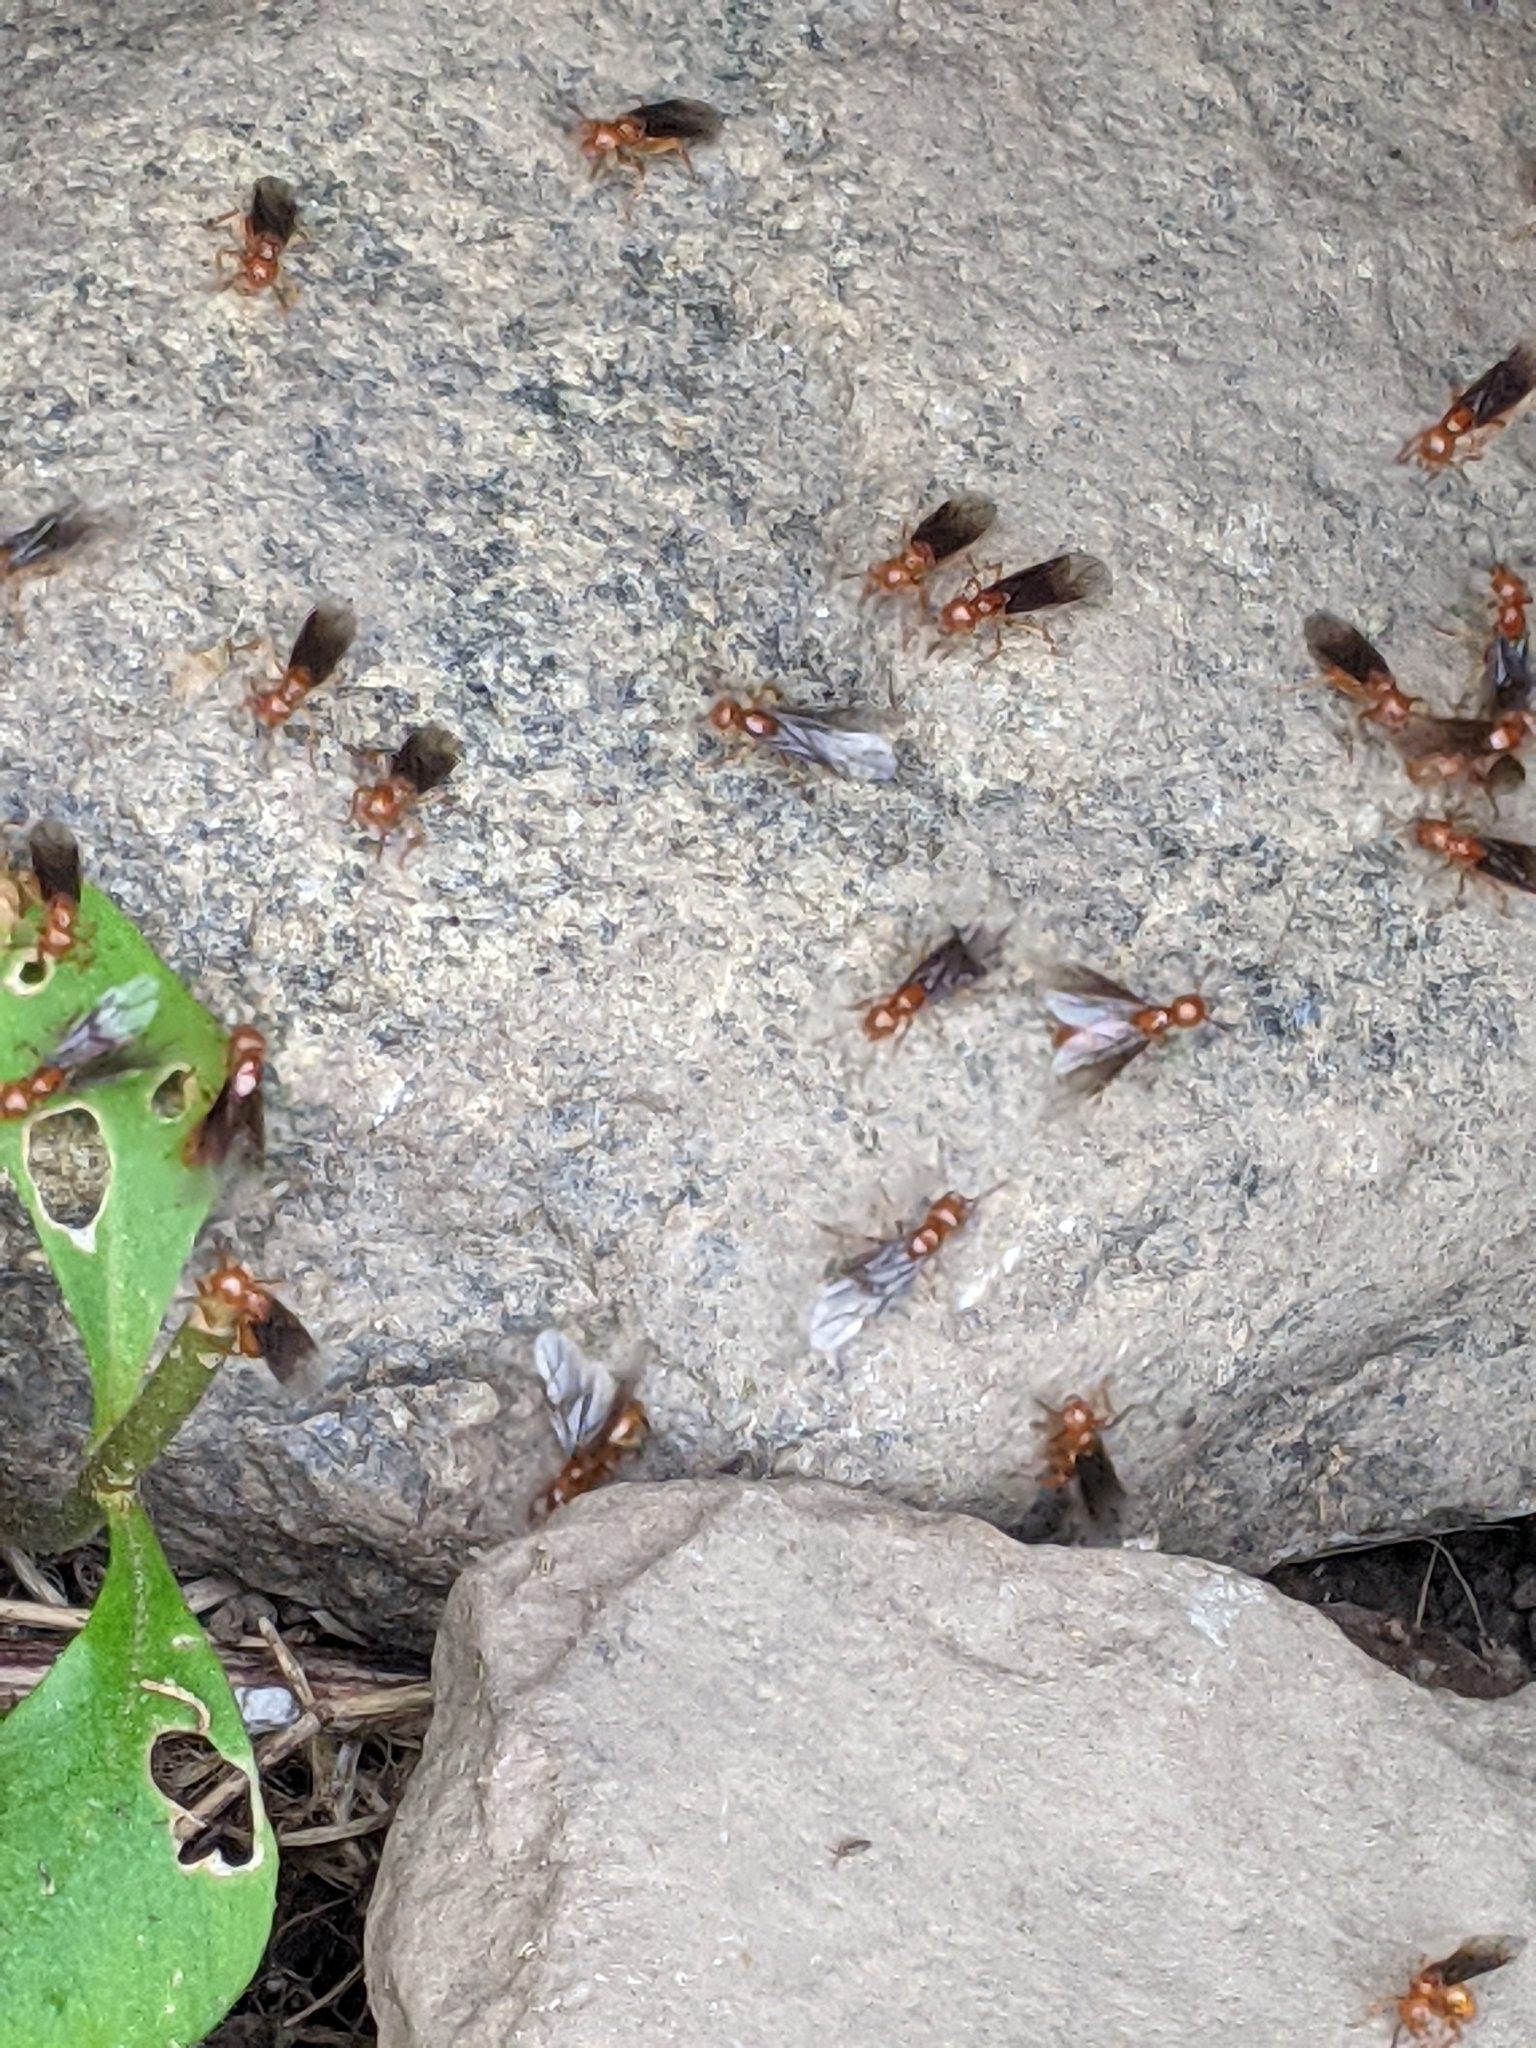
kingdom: Animalia
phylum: Arthropoda
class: Insecta
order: Hymenoptera
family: Formicidae
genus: Acanthomyops
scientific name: Acanthomyops interjectus
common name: Larger yellow ant
